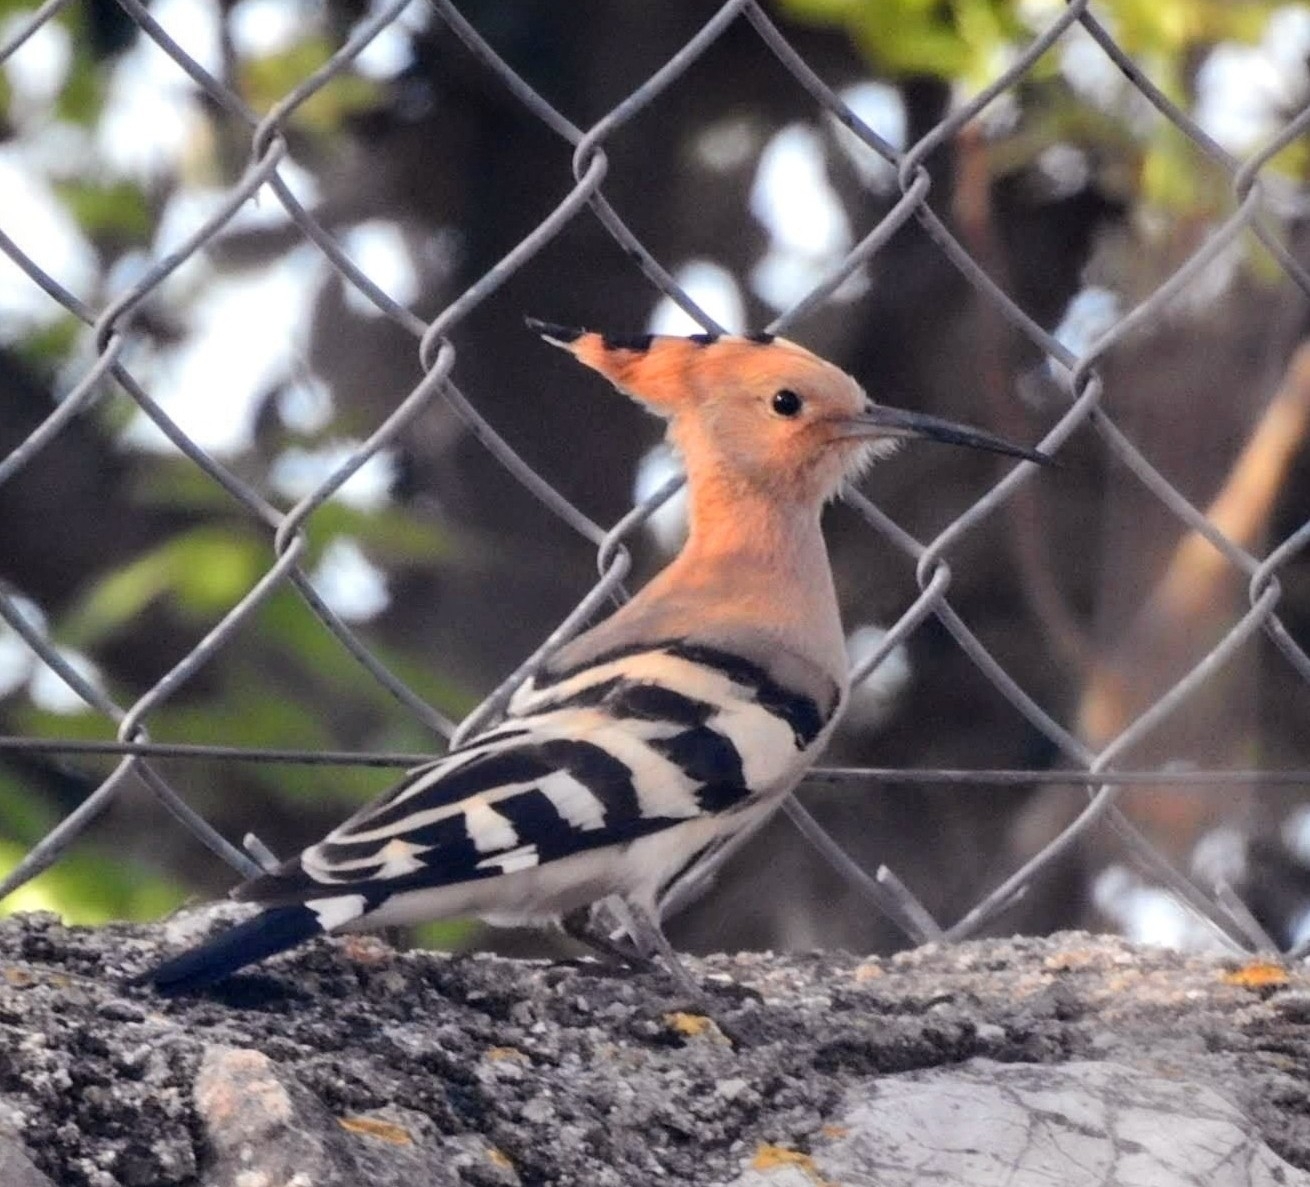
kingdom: Animalia
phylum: Chordata
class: Aves
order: Bucerotiformes
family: Upupidae
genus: Upupa
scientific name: Upupa epops
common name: Eurasian hoopoe
